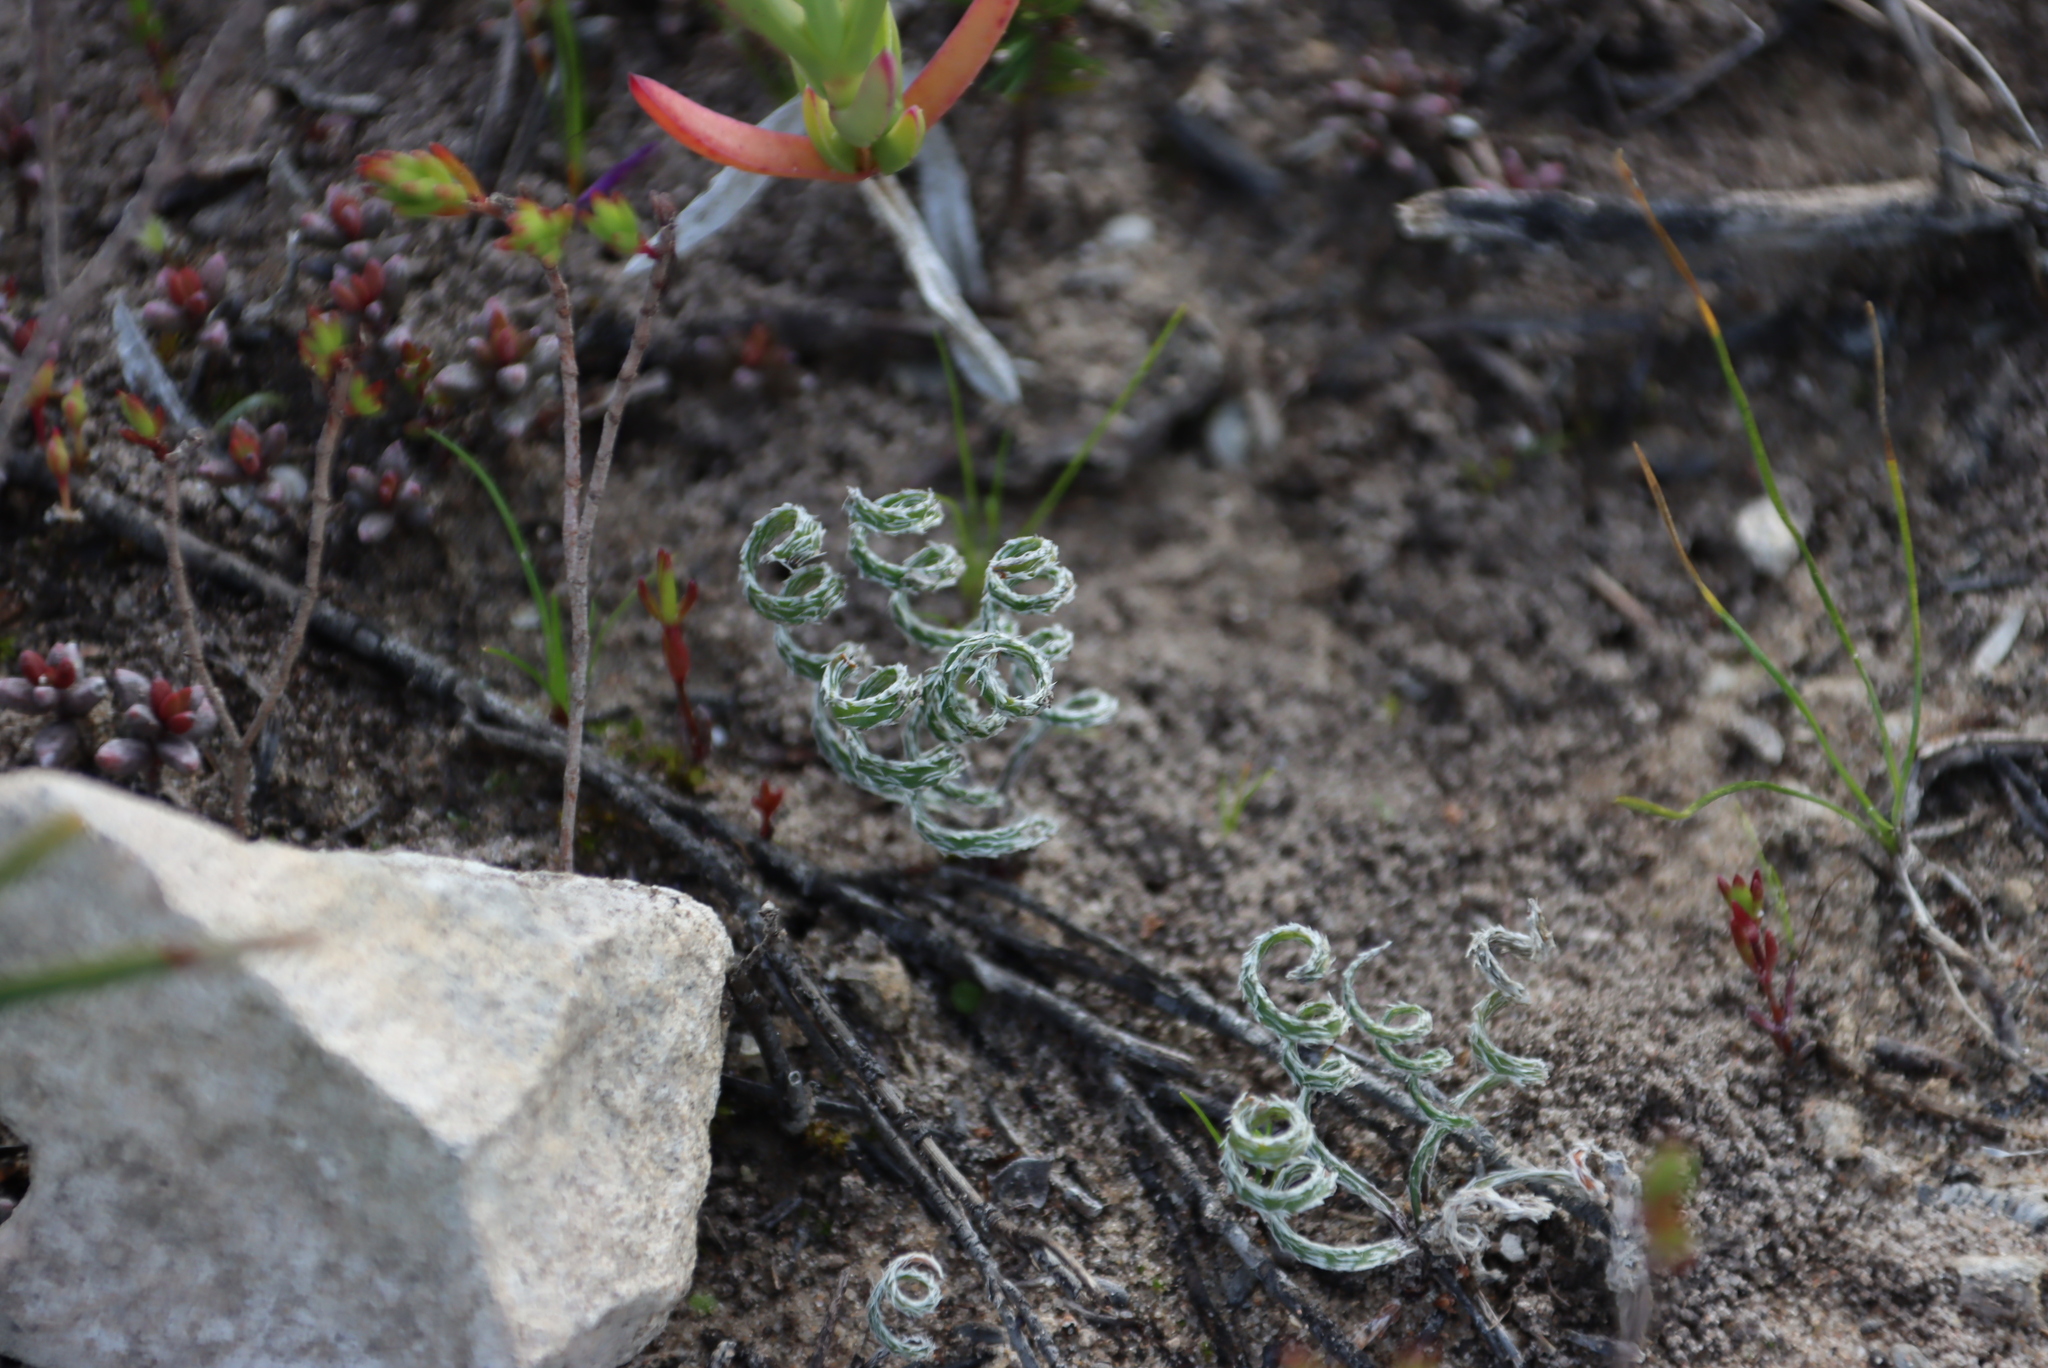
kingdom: Plantae
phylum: Tracheophyta
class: Liliopsida
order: Asparagales
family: Amaryllidaceae
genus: Gethyllis
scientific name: Gethyllis villosa
